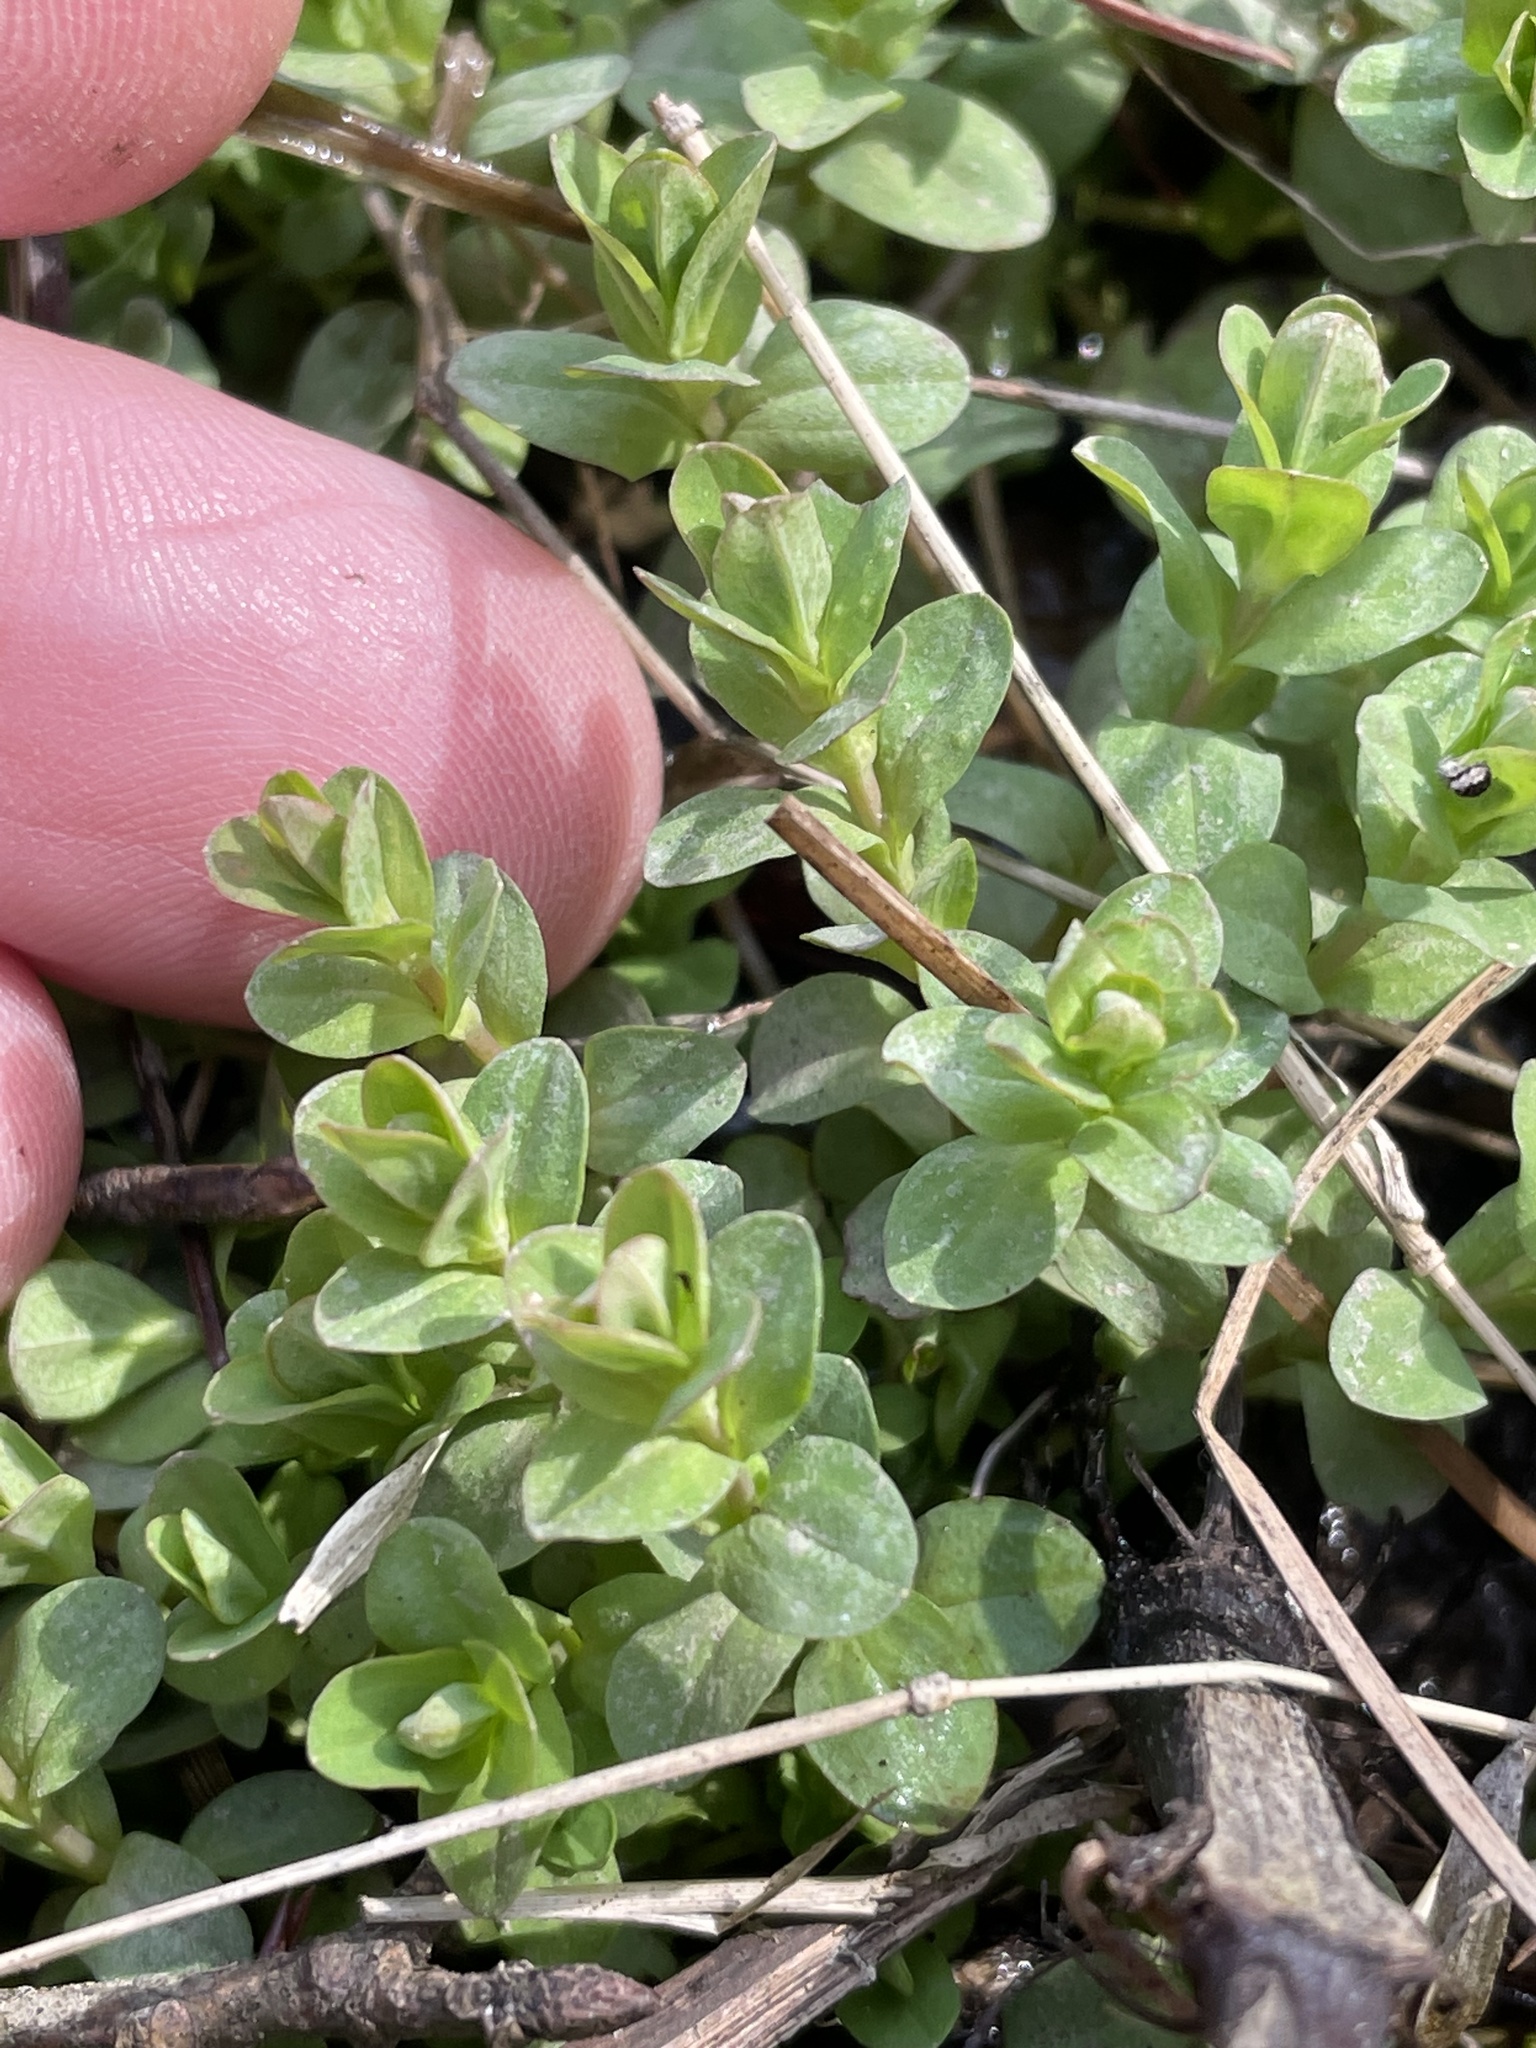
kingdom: Plantae
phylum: Tracheophyta
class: Magnoliopsida
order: Malpighiales
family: Hypericaceae
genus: Hypericum
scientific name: Hypericum mutilum
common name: Dwarf st. john's-wort
